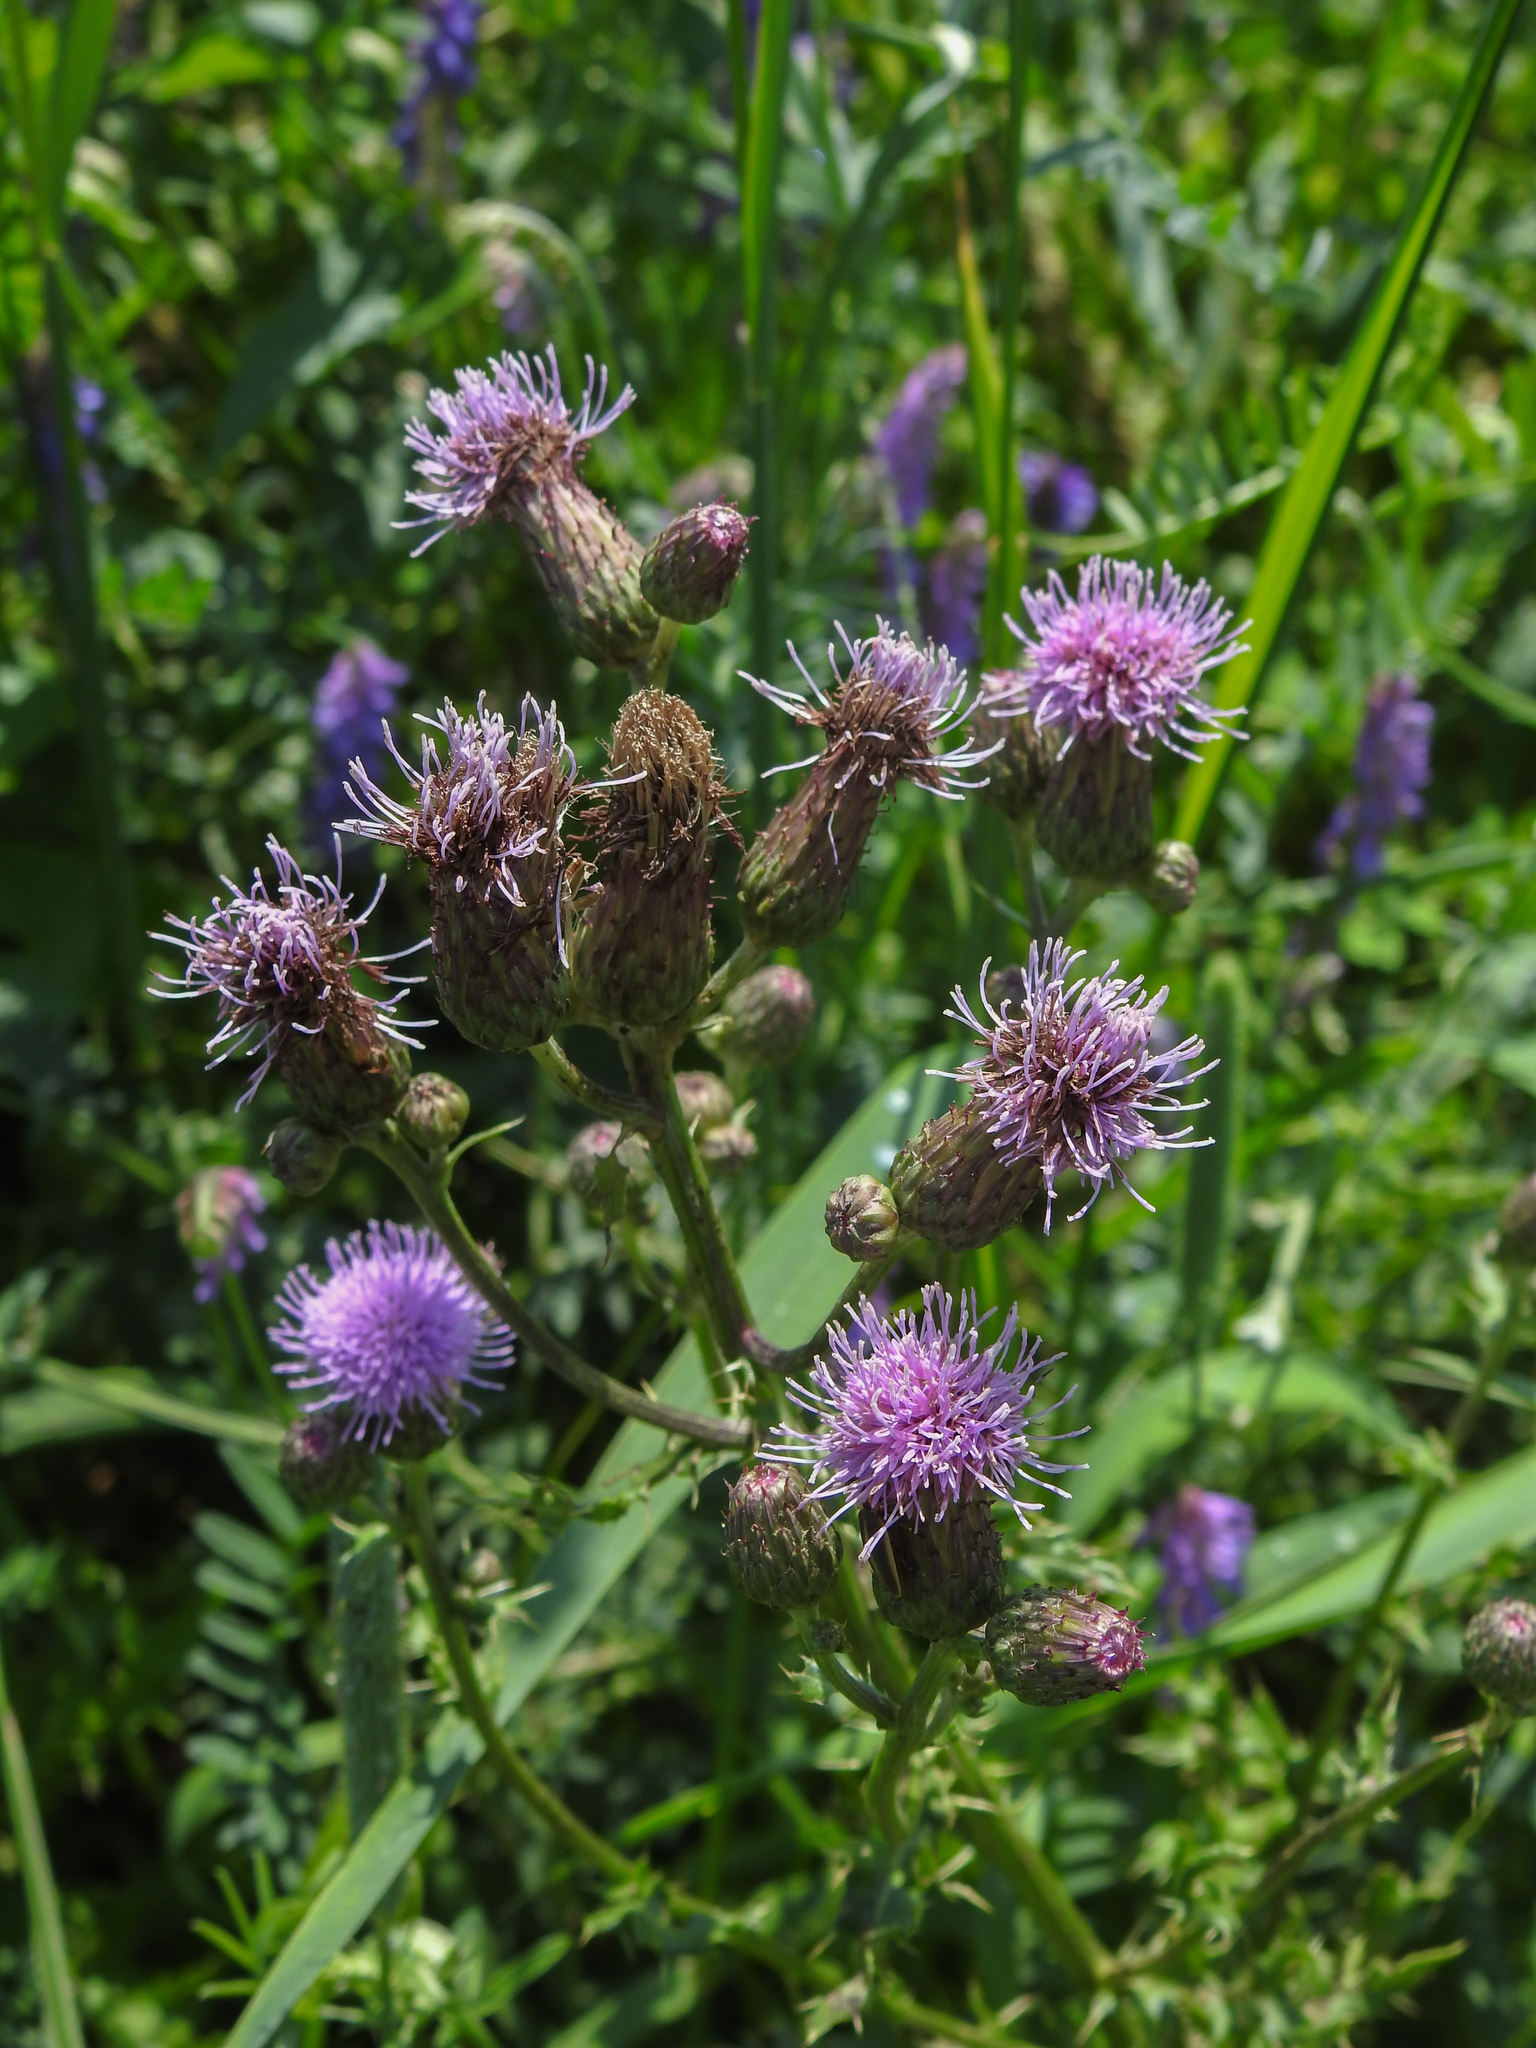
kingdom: Plantae
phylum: Tracheophyta
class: Magnoliopsida
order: Asterales
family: Asteraceae
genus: Cirsium
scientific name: Cirsium arvense
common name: Creeping thistle
